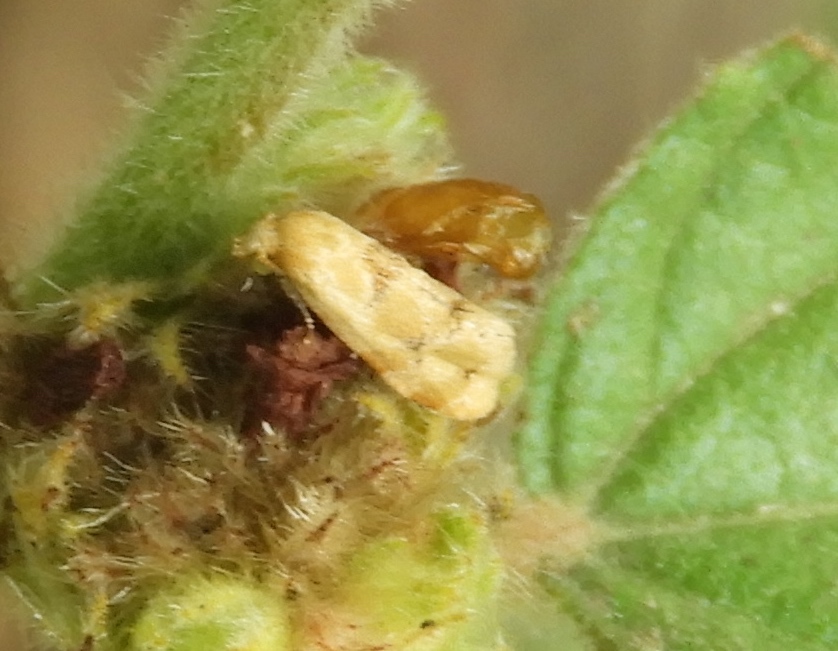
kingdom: Animalia
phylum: Arthropoda
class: Insecta
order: Lepidoptera
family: Tortricidae
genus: Cochylina
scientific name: Cochylina
